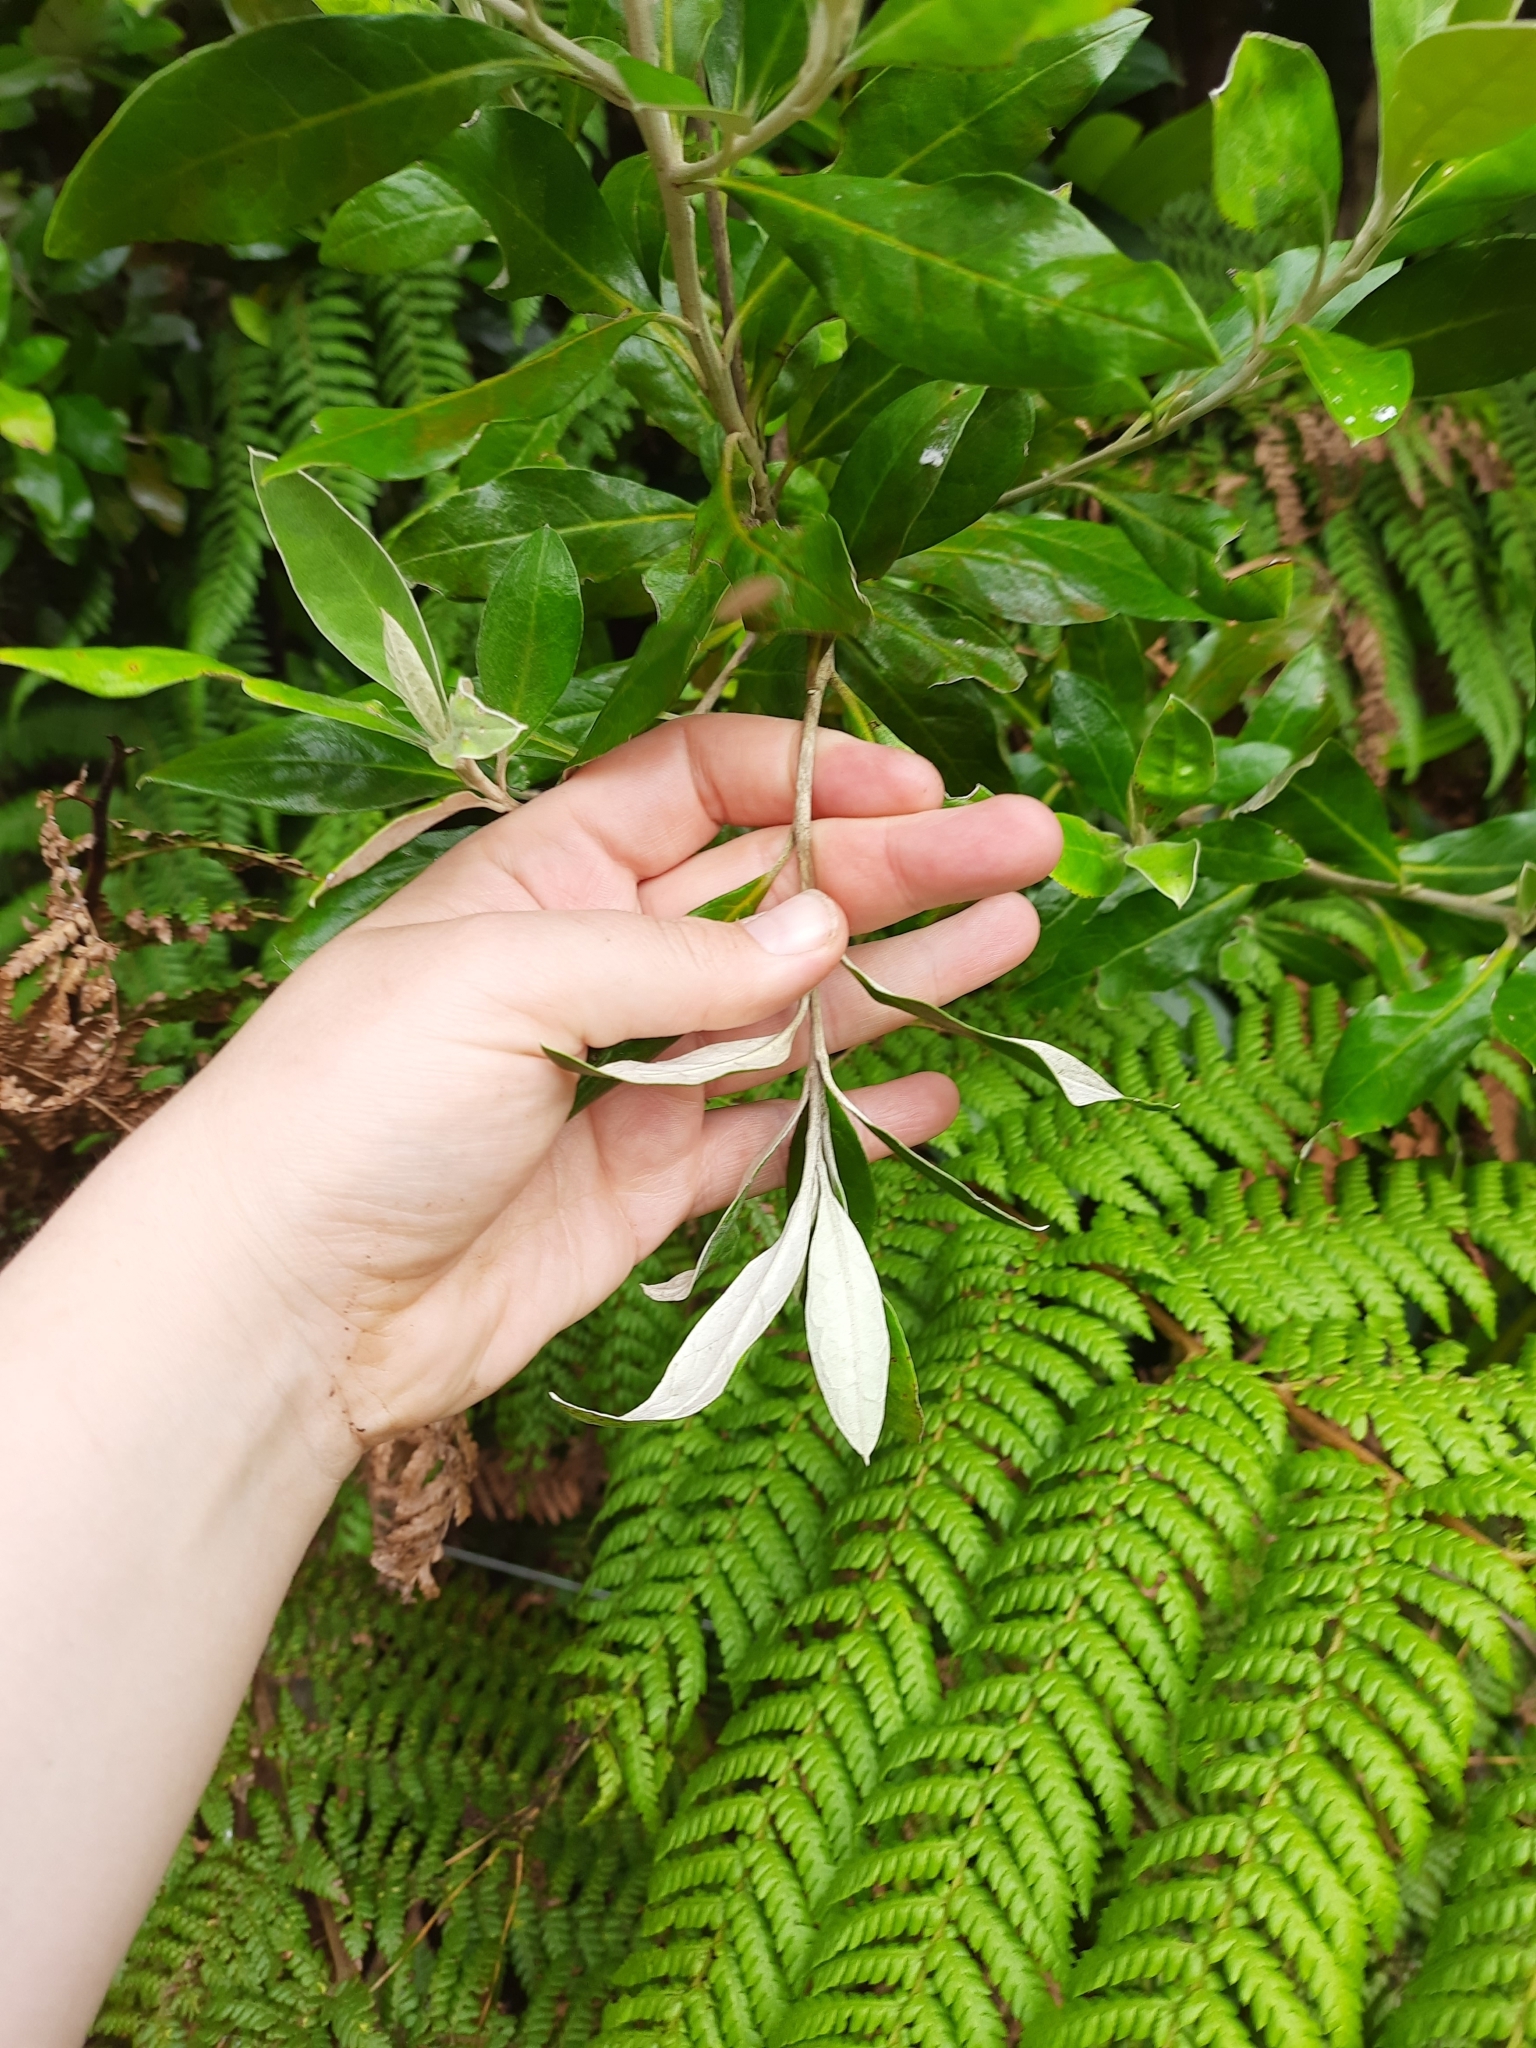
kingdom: Plantae
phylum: Tracheophyta
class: Magnoliopsida
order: Asterales
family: Argophyllaceae
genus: Corokia
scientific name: Corokia macrocarpa
